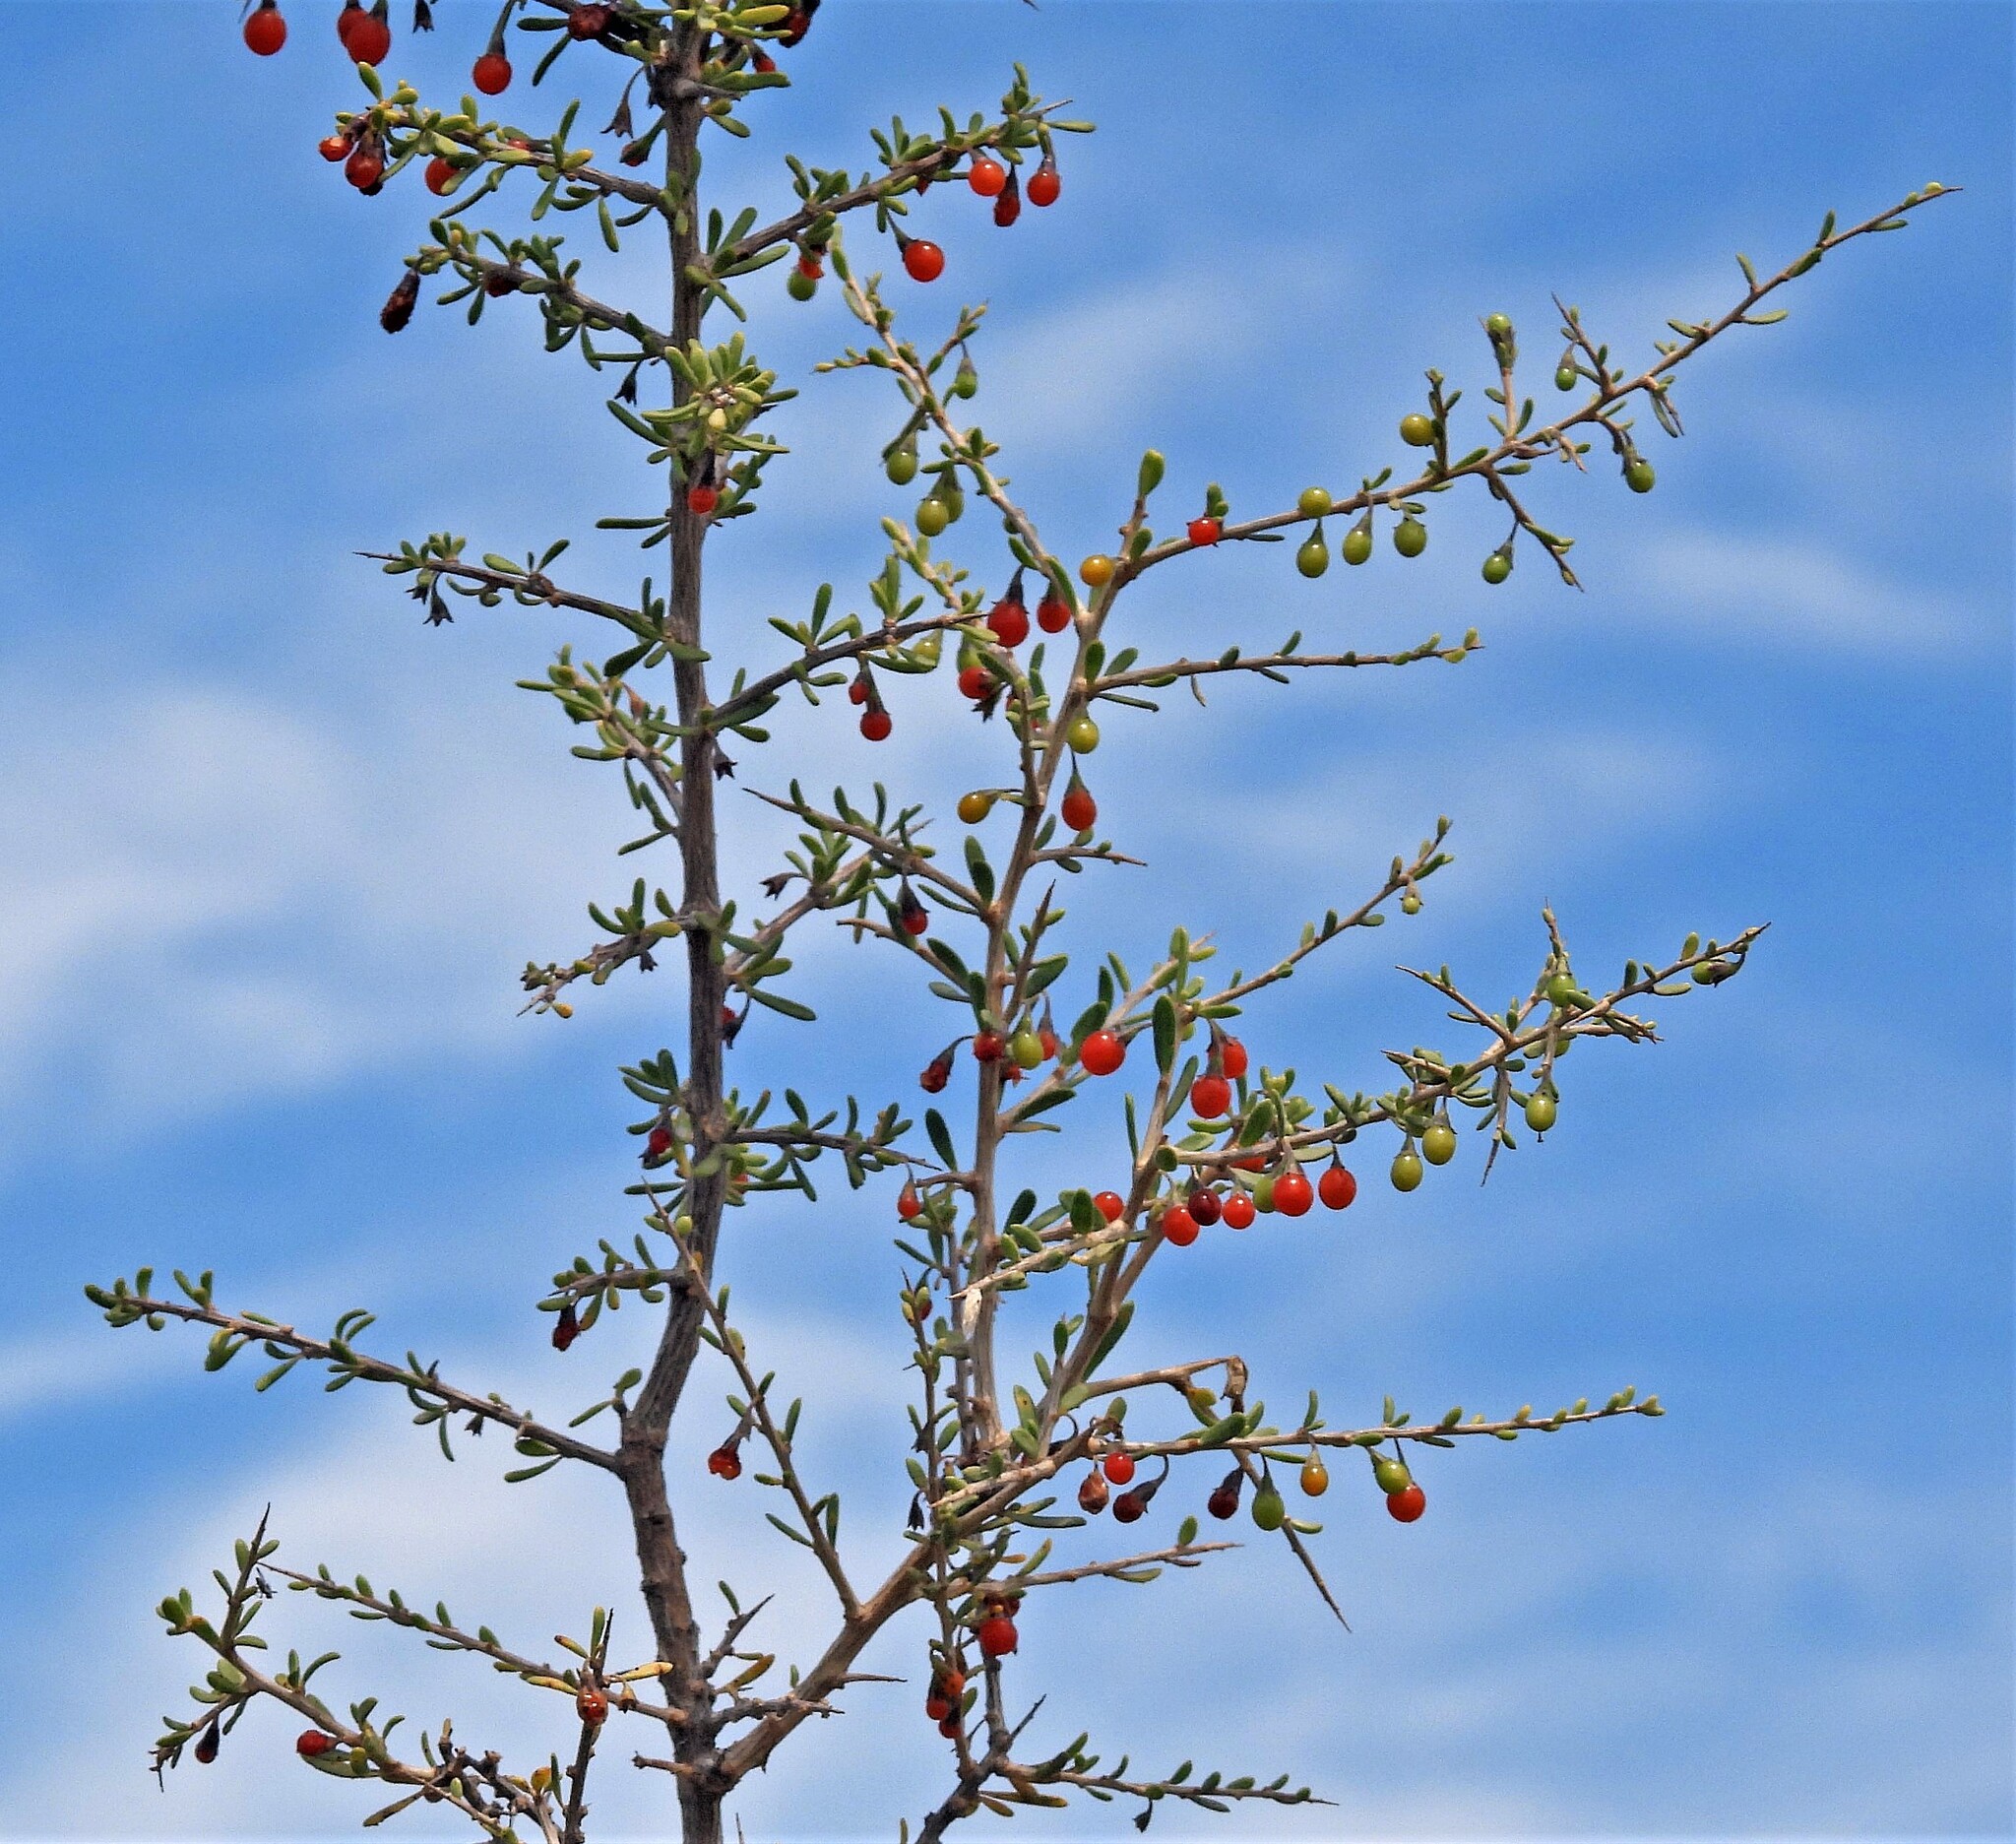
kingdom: Plantae
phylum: Tracheophyta
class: Magnoliopsida
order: Solanales
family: Solanaceae
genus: Lycium
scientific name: Lycium chilense
